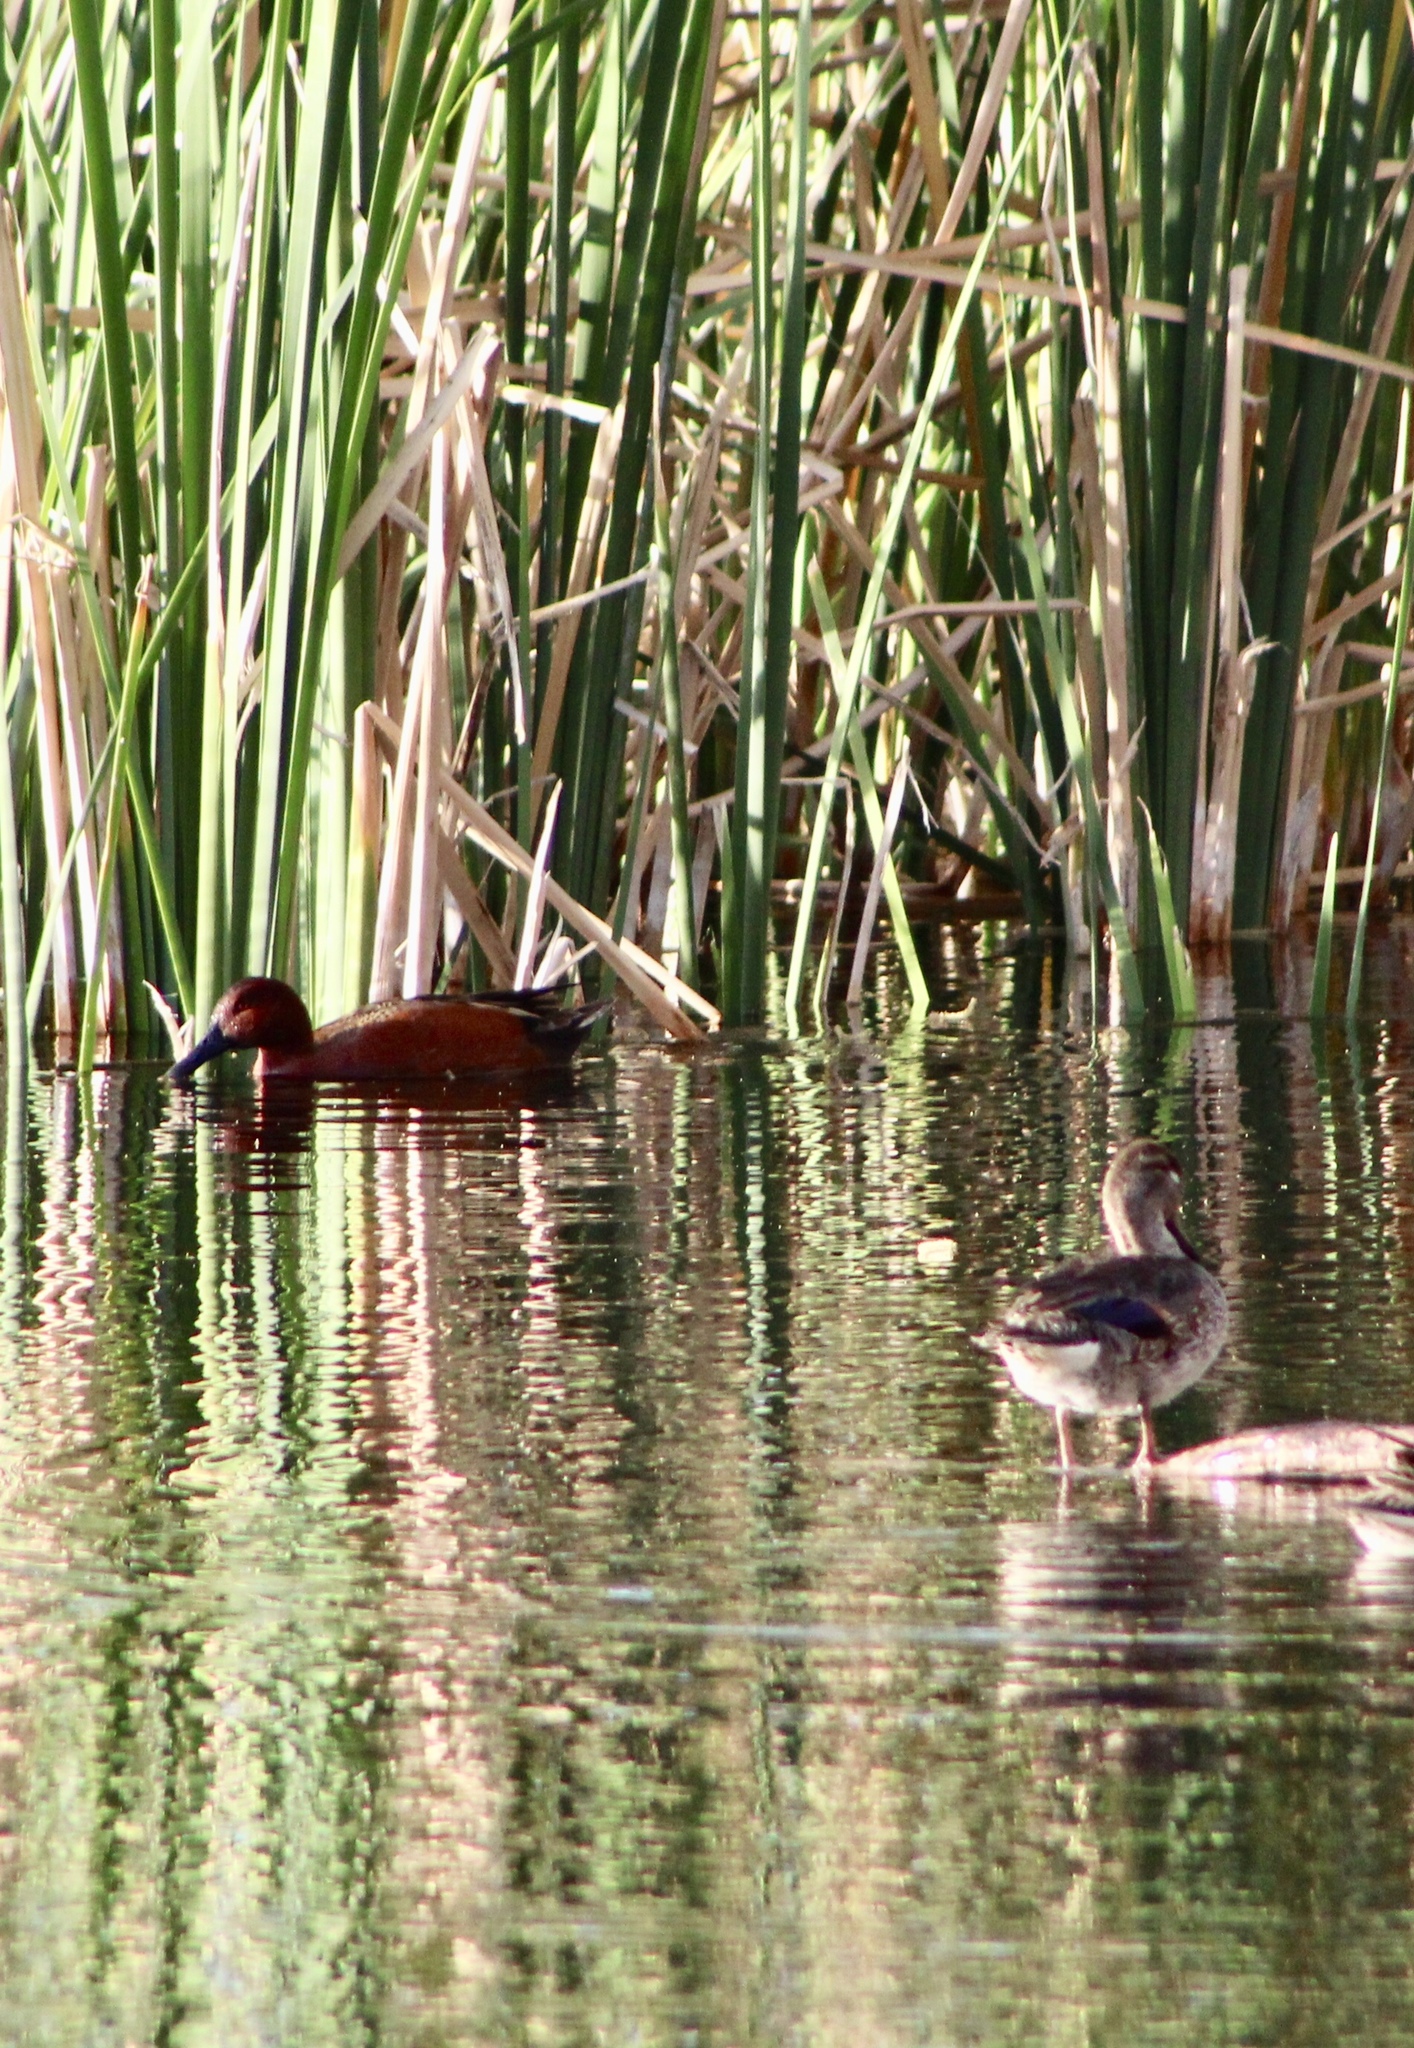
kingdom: Animalia
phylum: Chordata
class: Aves
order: Anseriformes
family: Anatidae
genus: Spatula
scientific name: Spatula cyanoptera
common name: Cinnamon teal
